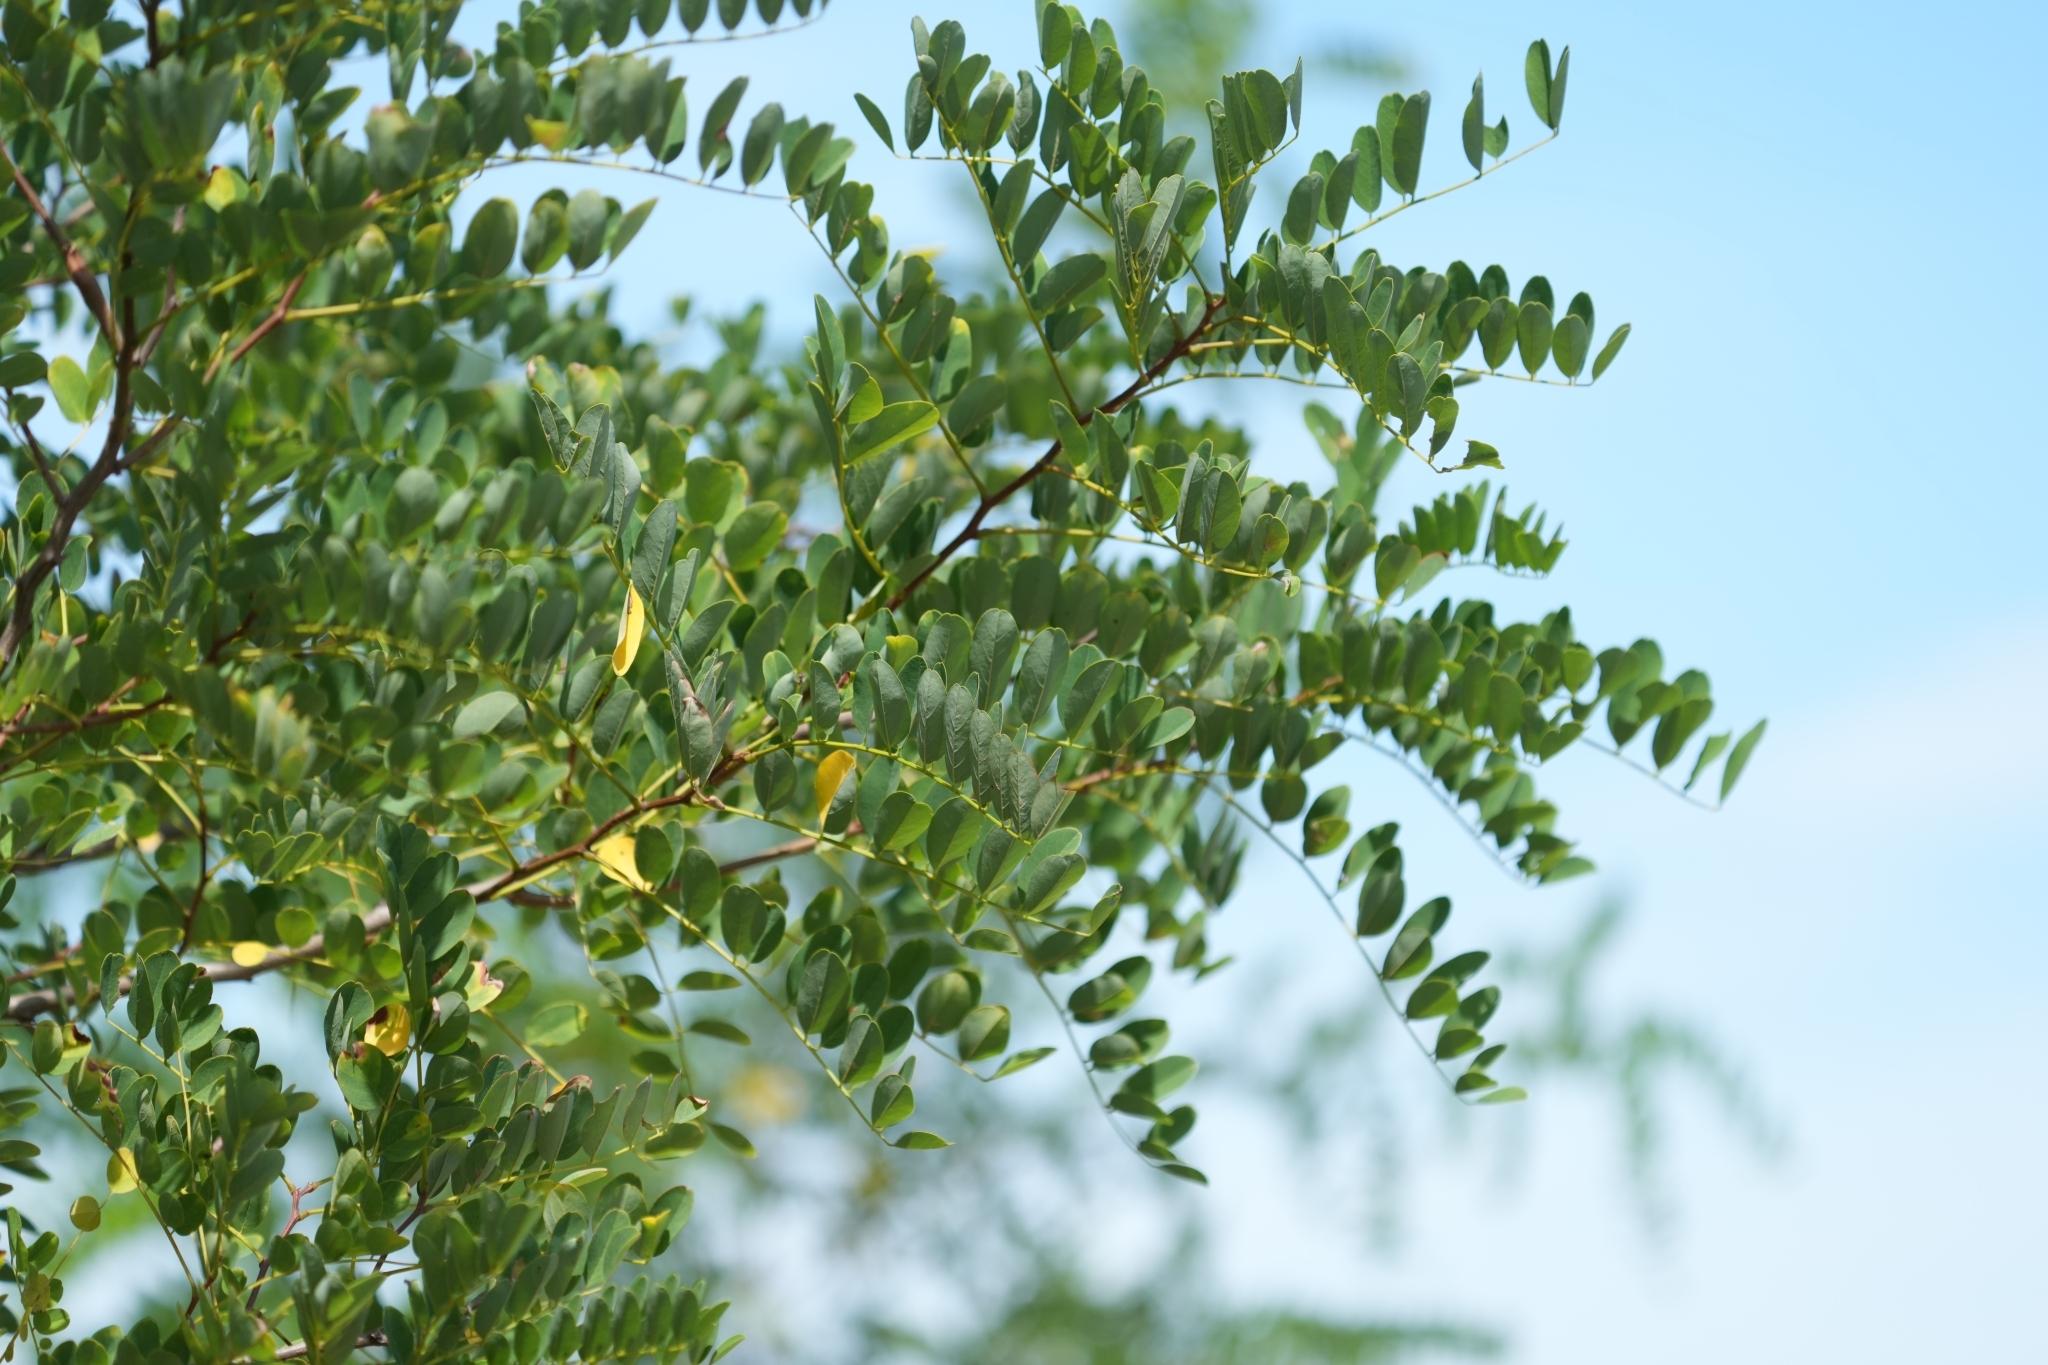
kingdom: Plantae
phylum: Tracheophyta
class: Magnoliopsida
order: Fabales
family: Fabaceae
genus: Robinia
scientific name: Robinia pseudoacacia
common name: Black locust
